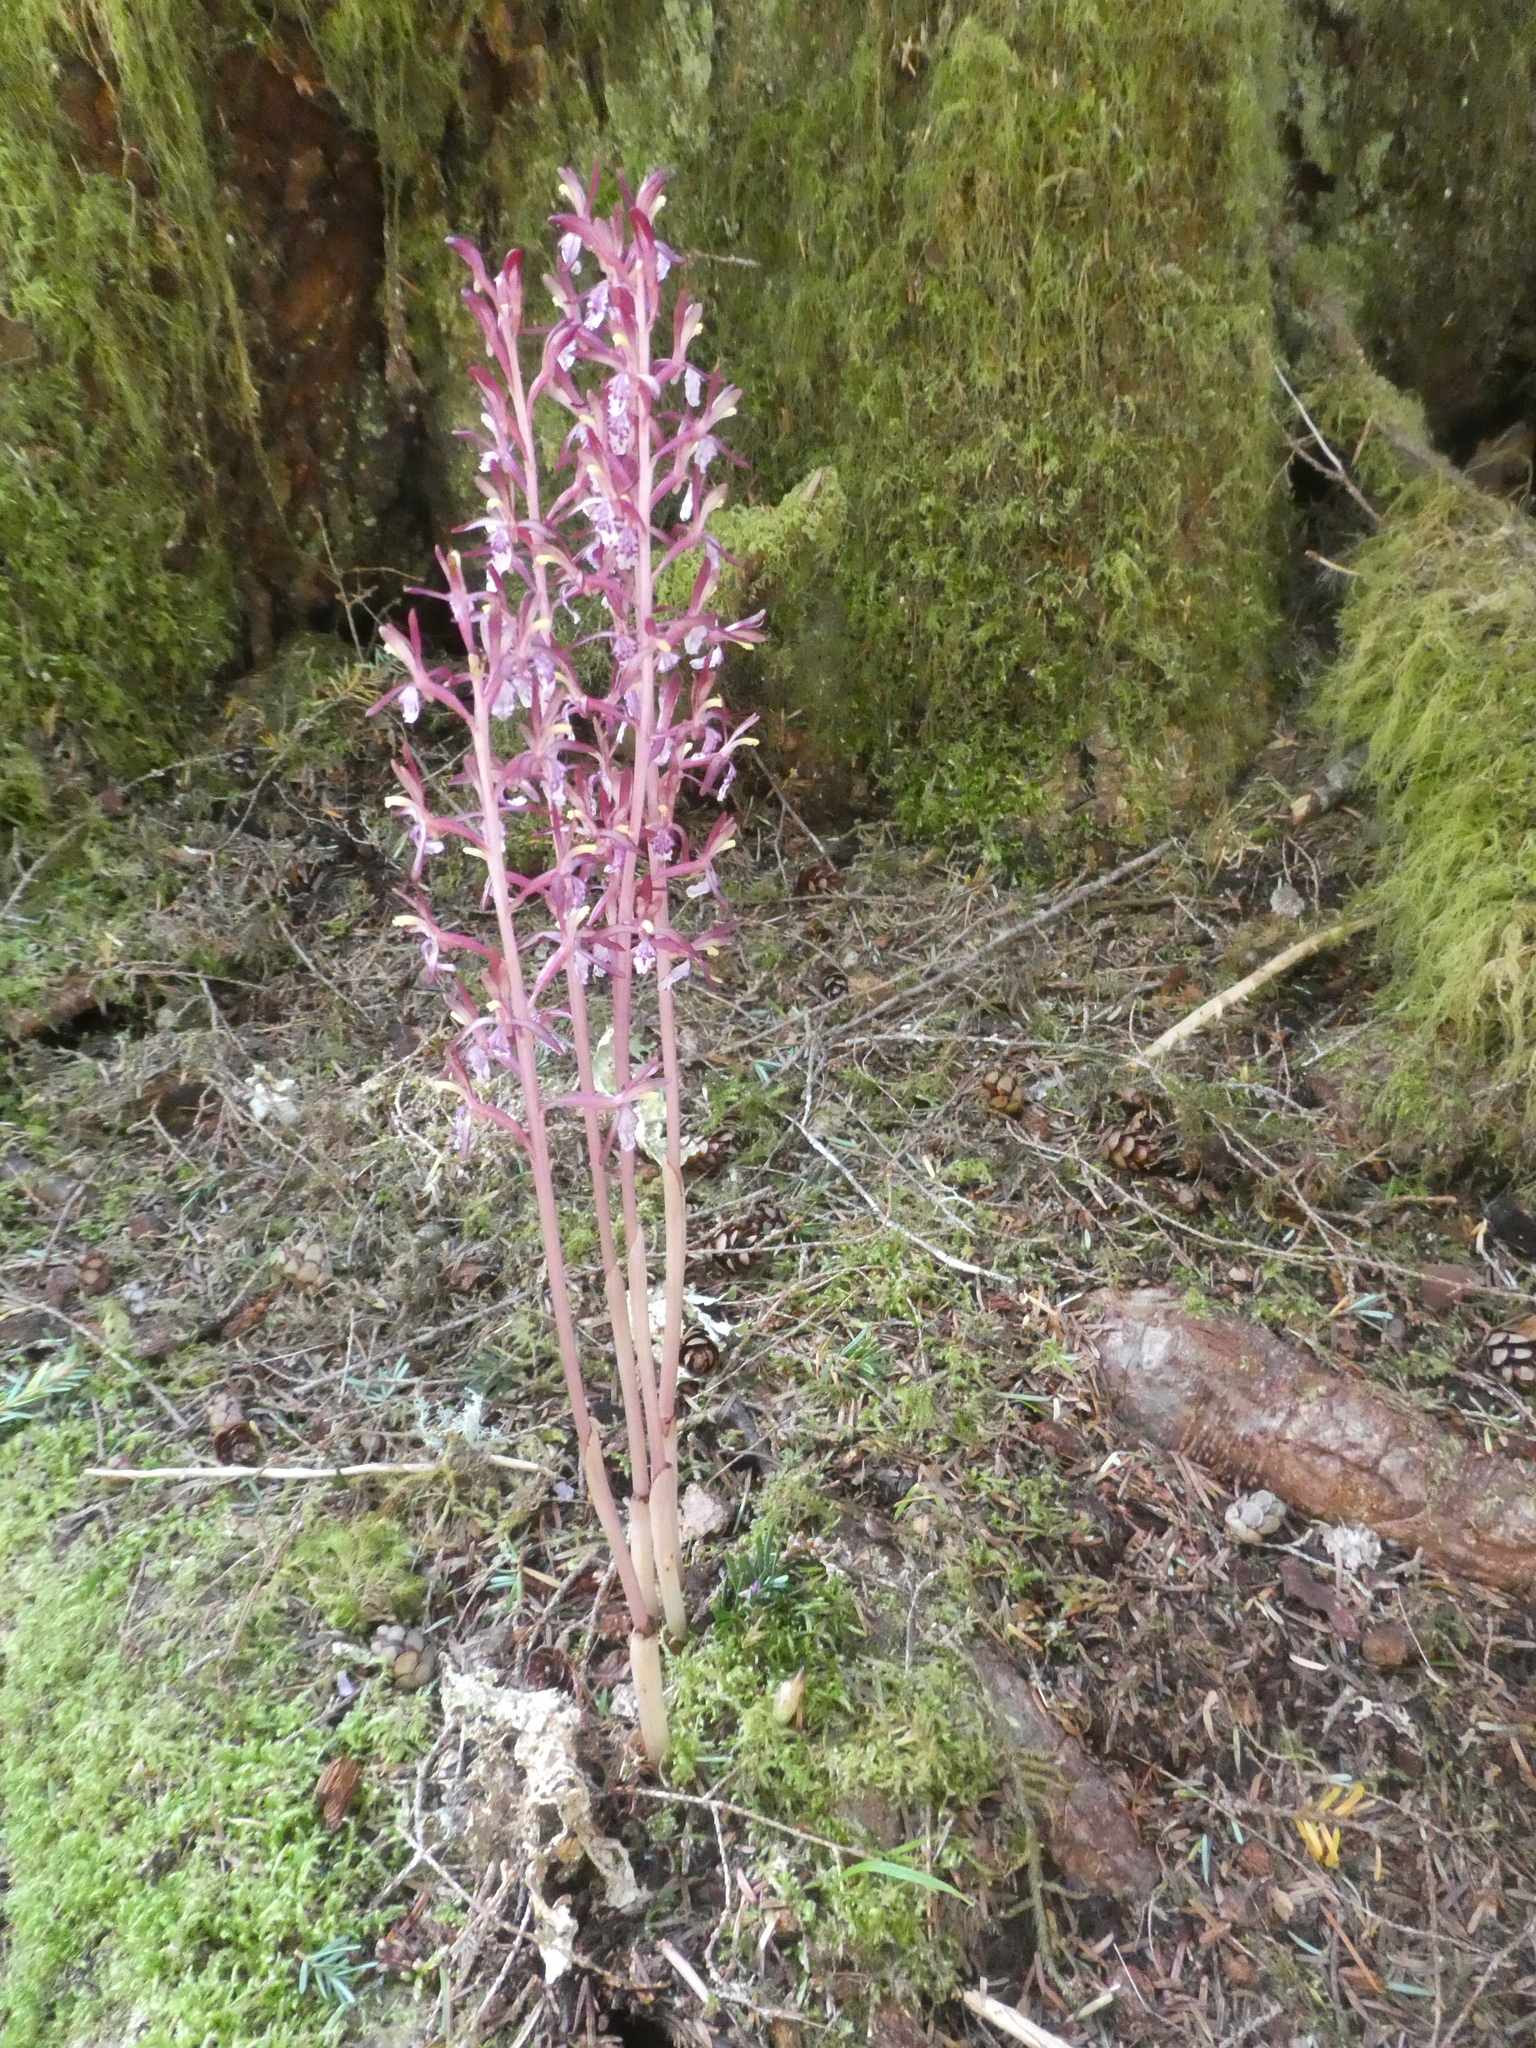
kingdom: Plantae
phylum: Tracheophyta
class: Liliopsida
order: Asparagales
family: Orchidaceae
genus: Corallorhiza
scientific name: Corallorhiza mertensiana
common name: Pacific coralroot
